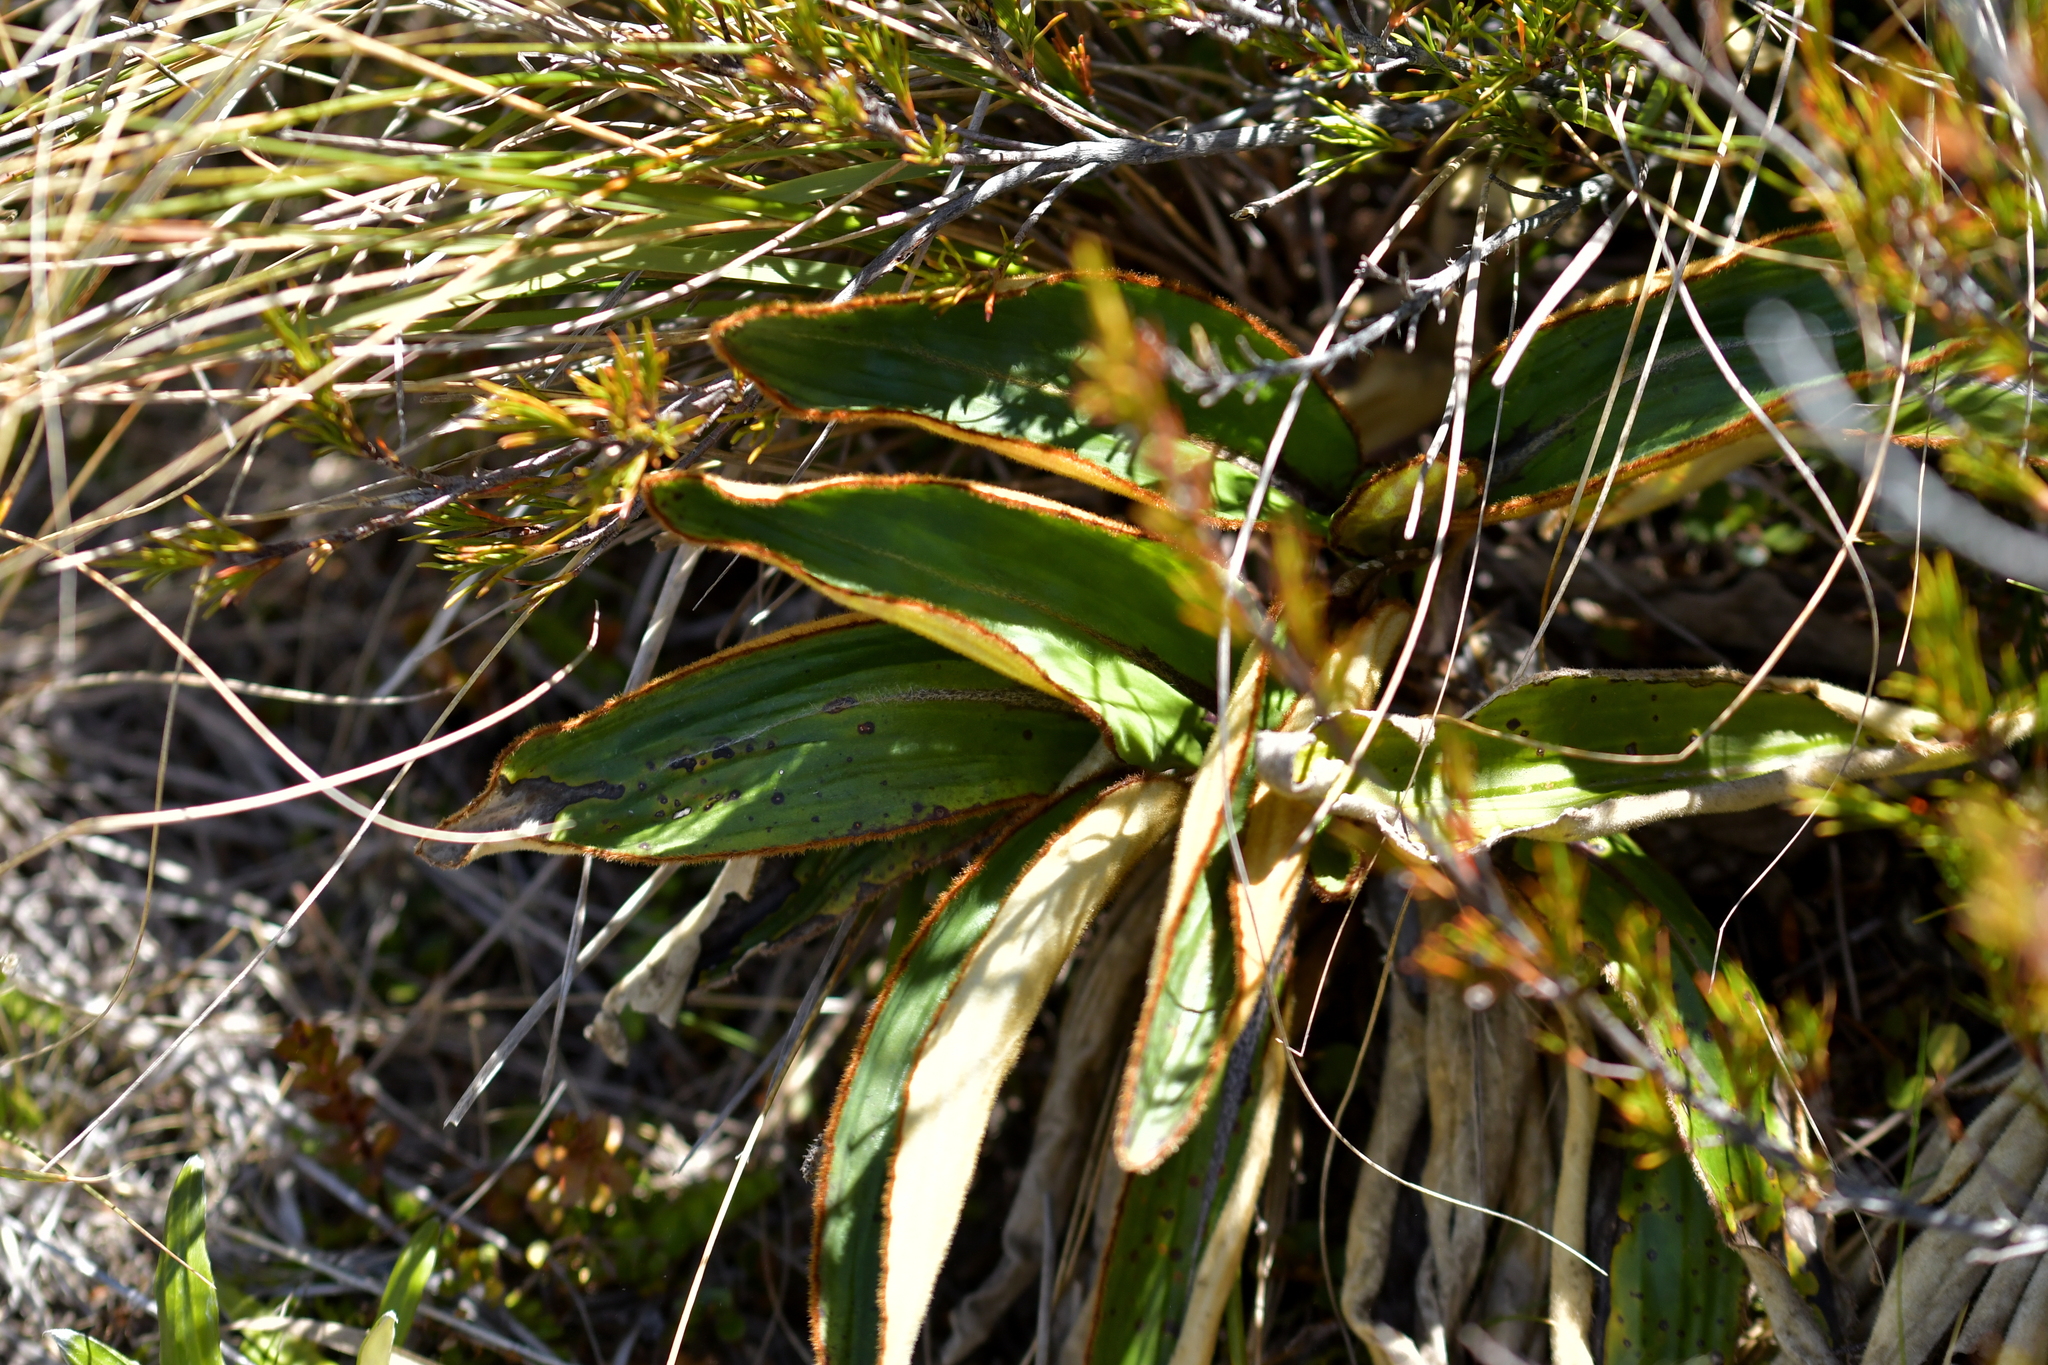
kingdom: Plantae
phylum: Tracheophyta
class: Magnoliopsida
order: Asterales
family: Asteraceae
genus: Celmisia
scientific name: Celmisia traversii
